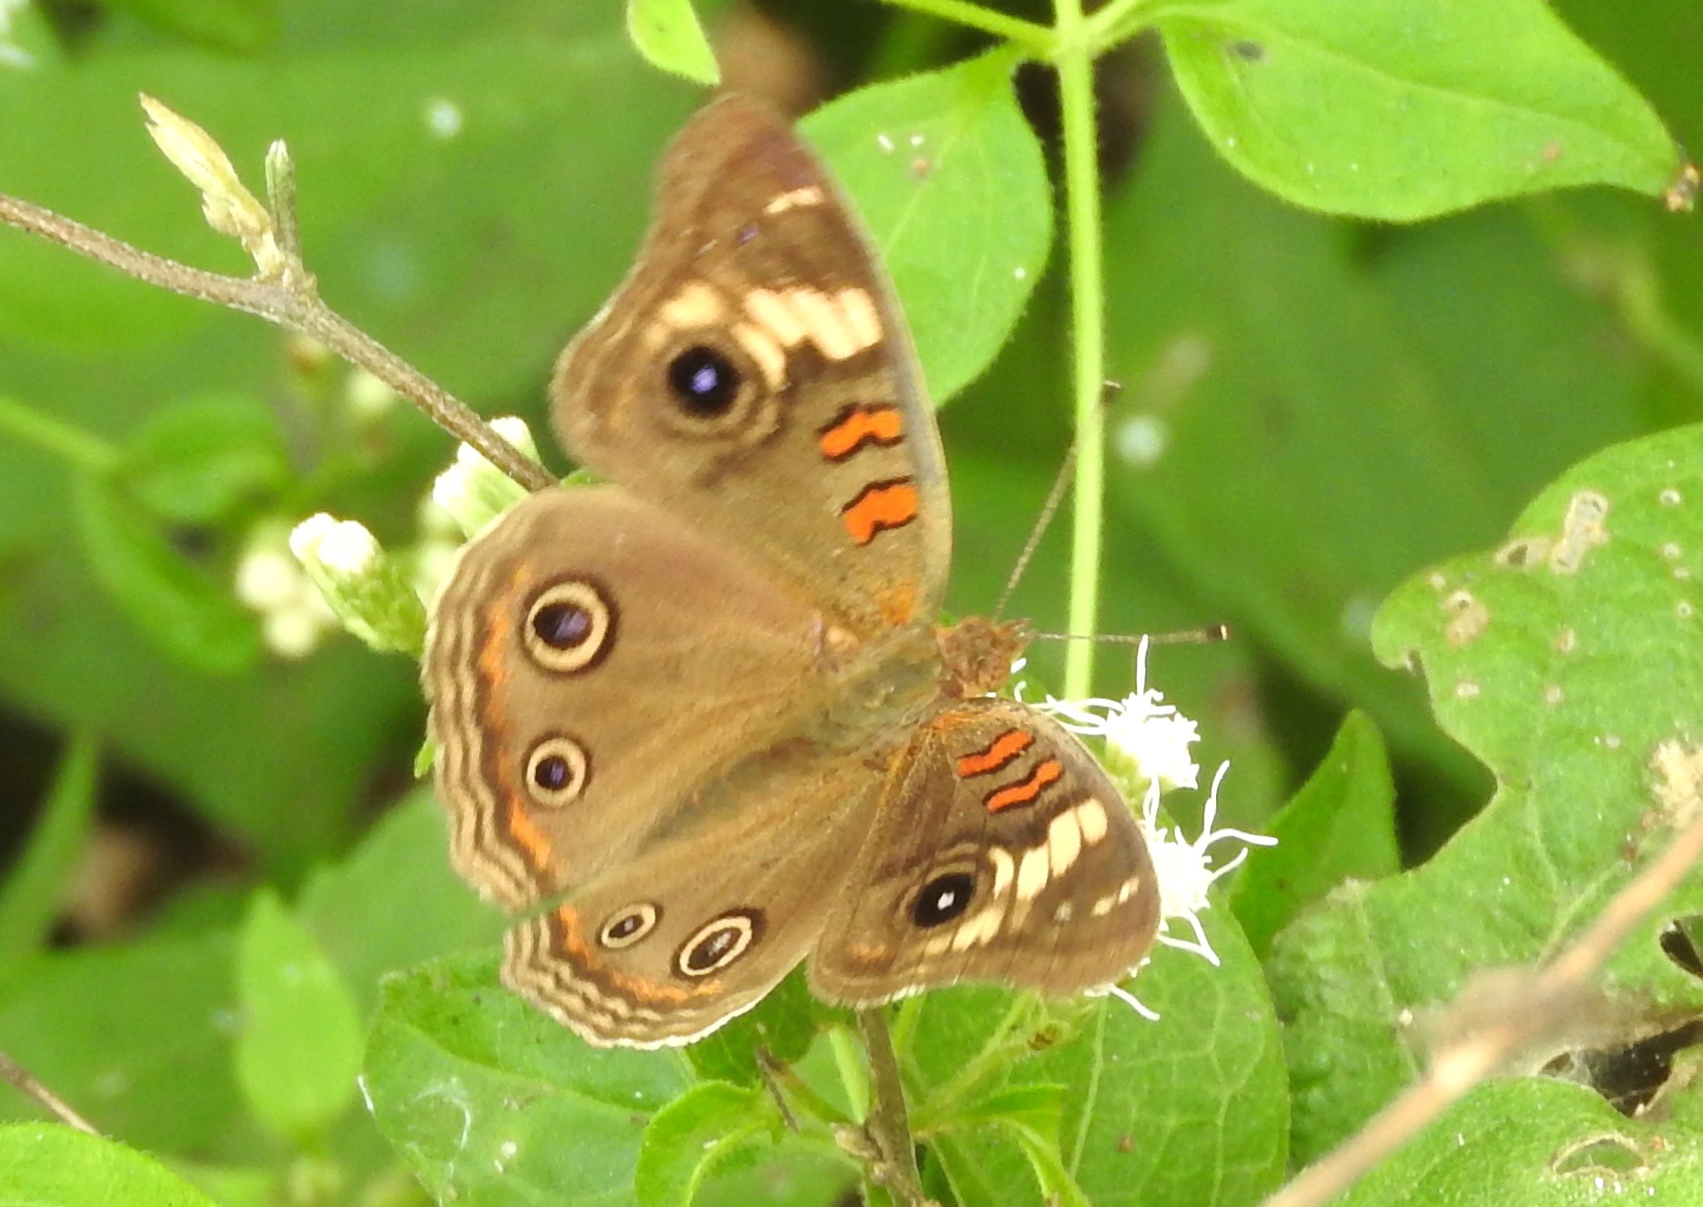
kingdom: Animalia
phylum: Arthropoda
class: Insecta
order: Lepidoptera
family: Nymphalidae
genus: Junonia
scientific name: Junonia
